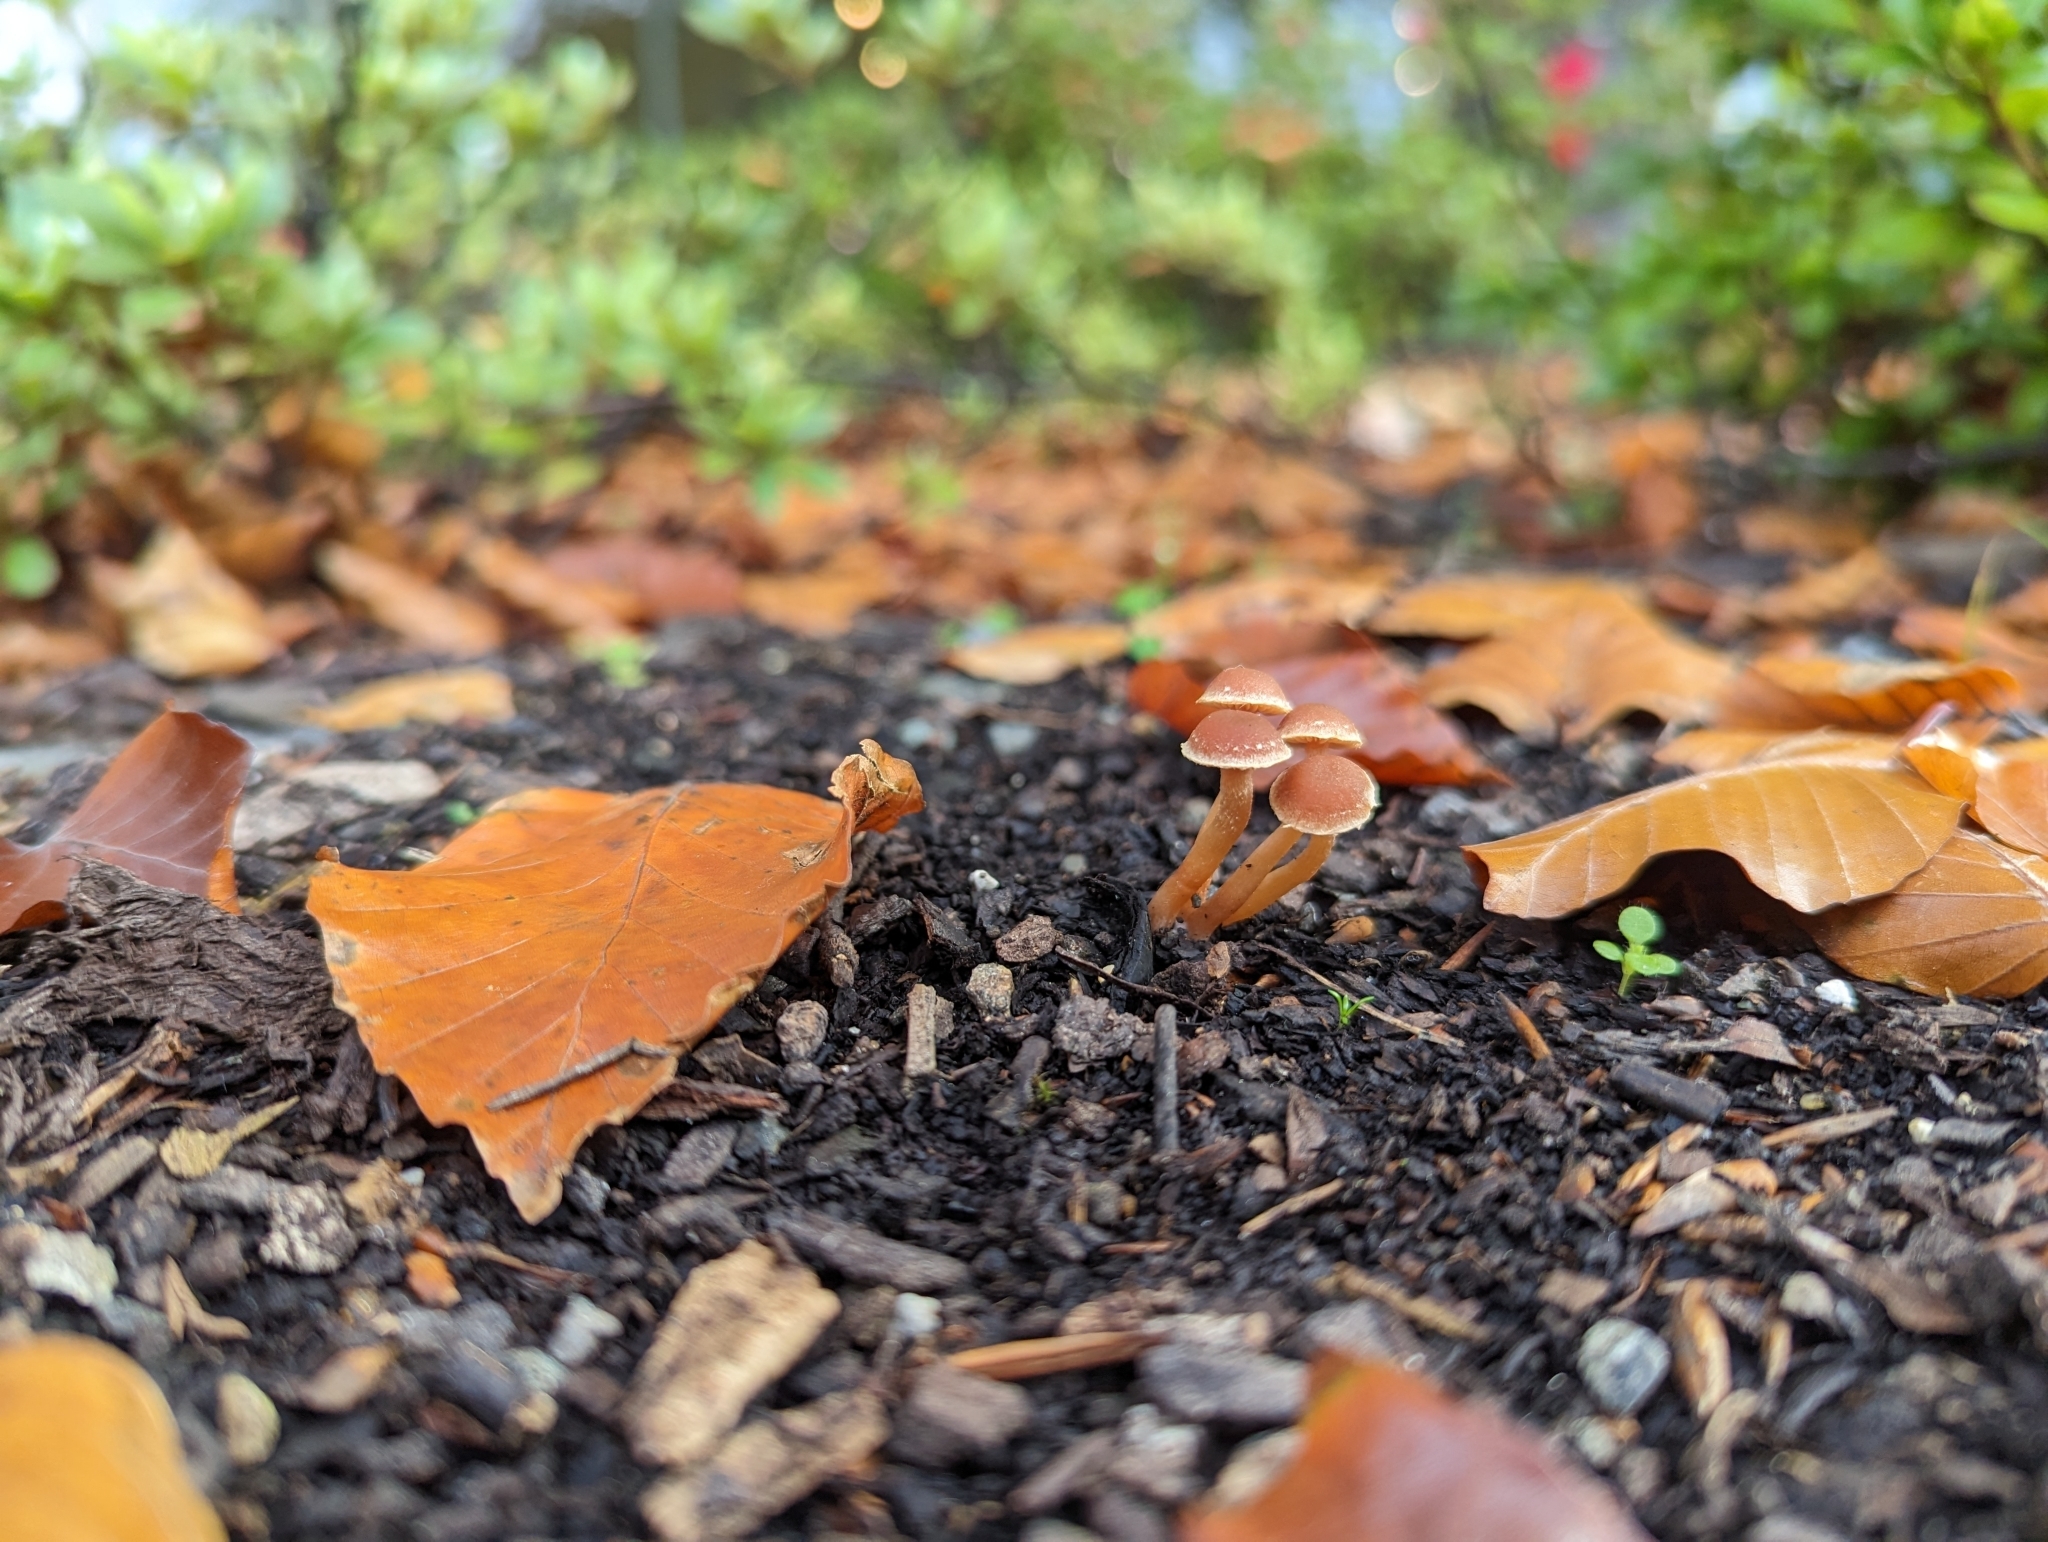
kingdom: Fungi
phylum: Basidiomycota
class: Agaricomycetes
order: Agaricales
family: Tubariaceae
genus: Tubaria
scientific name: Tubaria furfuracea
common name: Scurfy twiglet
